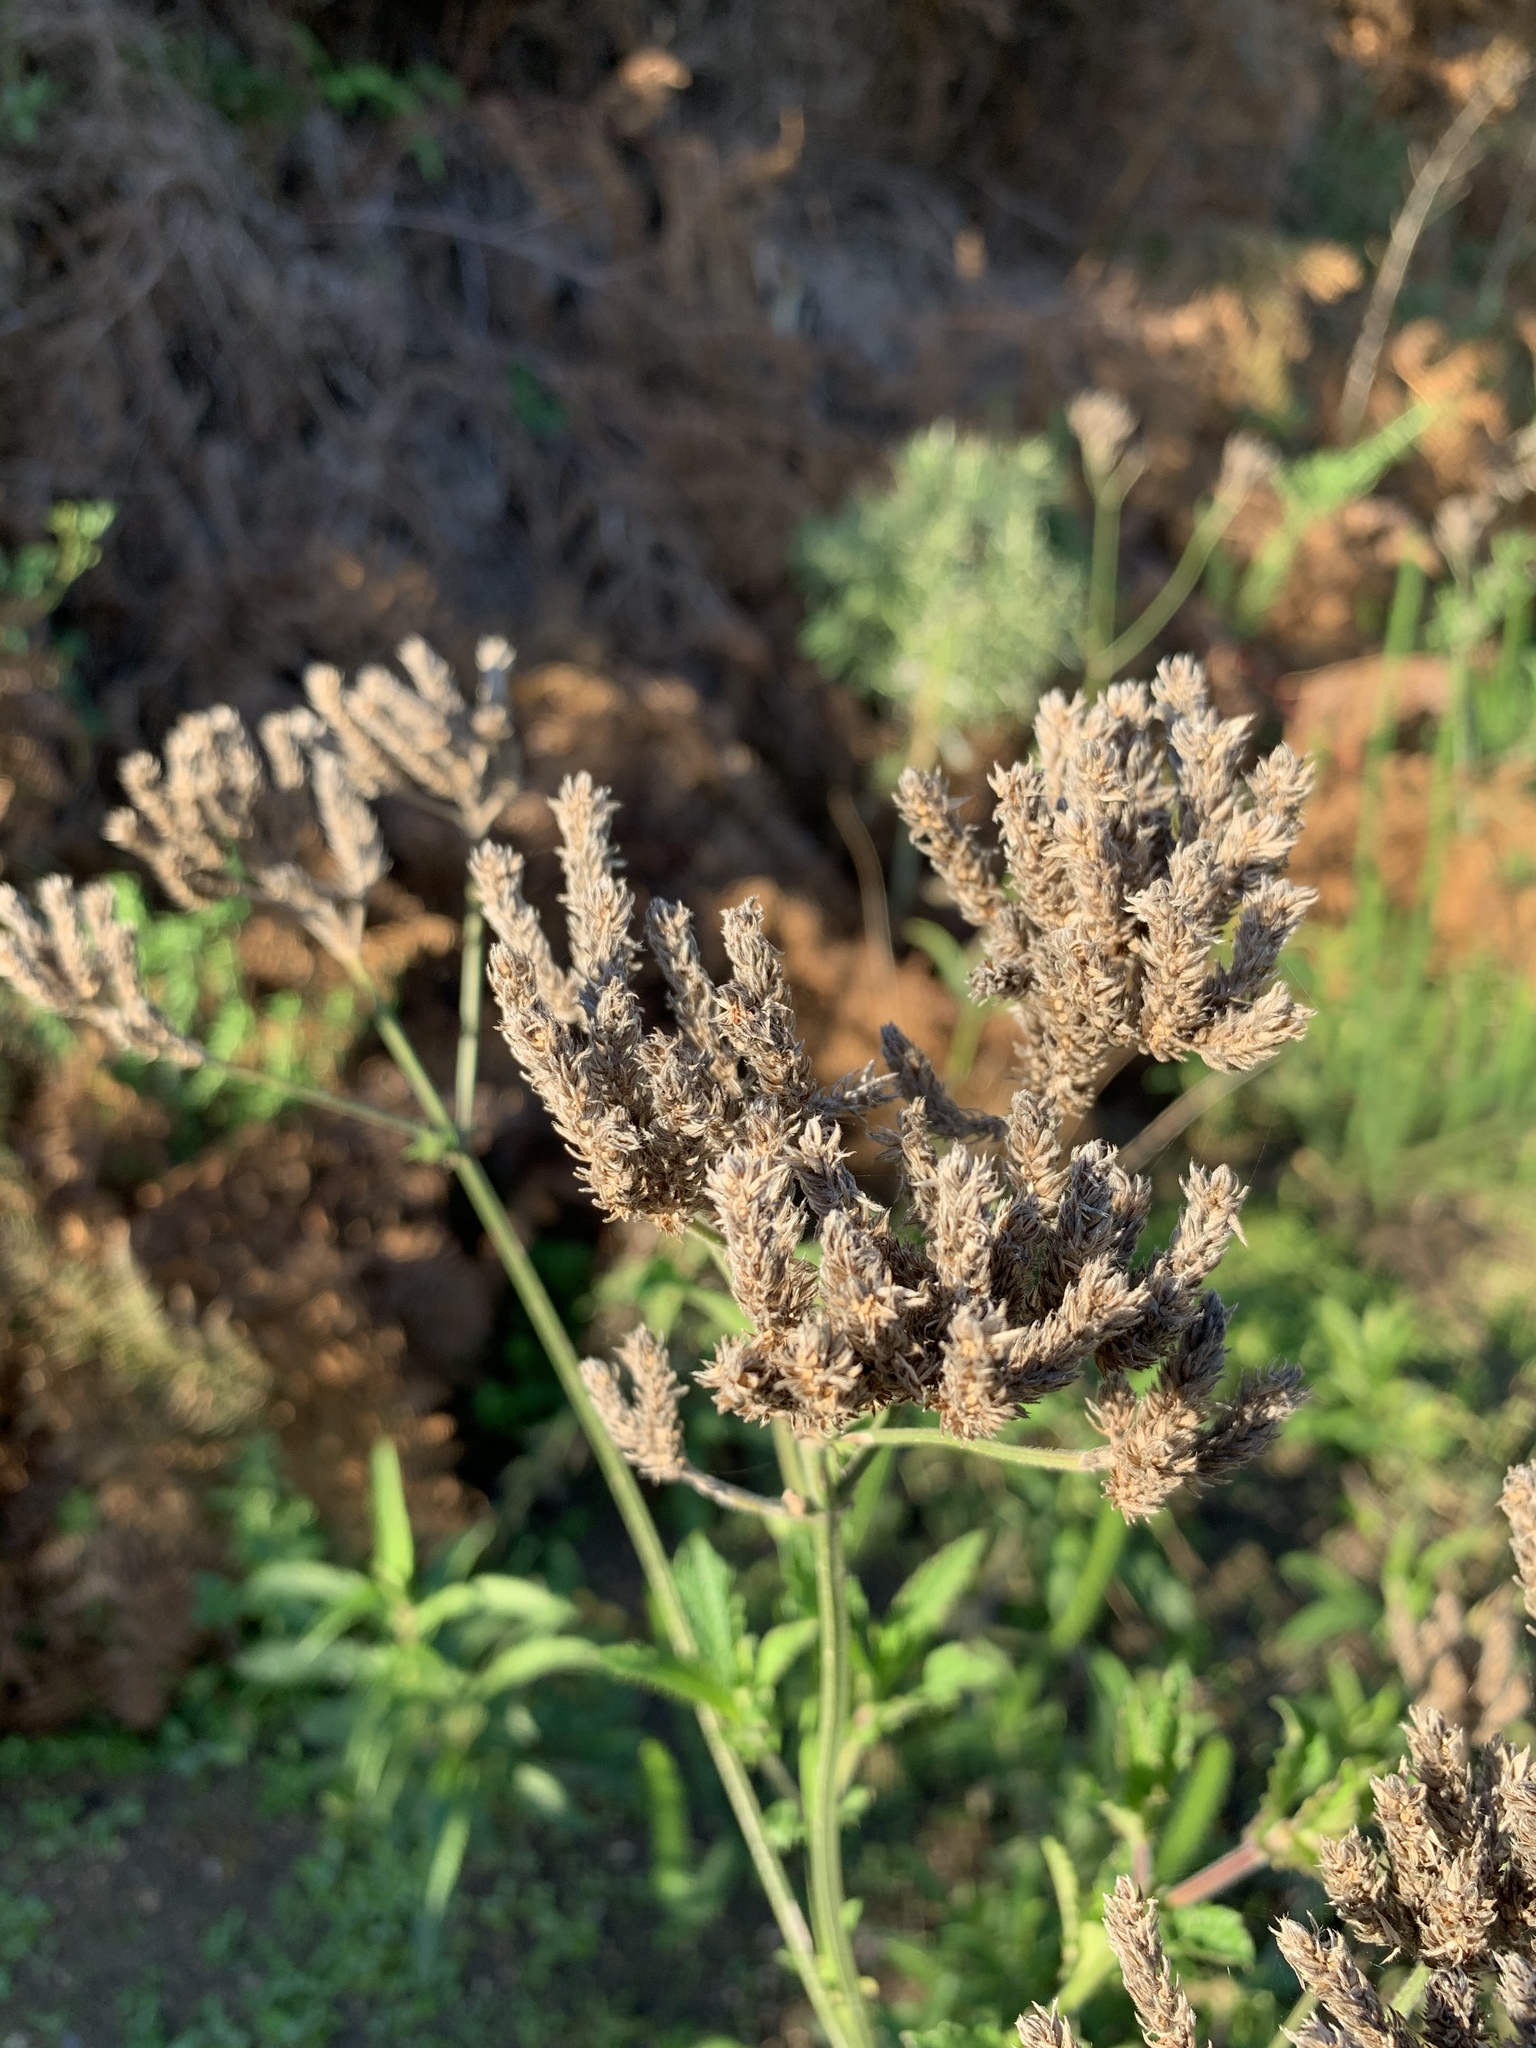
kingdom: Plantae
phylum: Tracheophyta
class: Magnoliopsida
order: Lamiales
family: Verbenaceae
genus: Verbena
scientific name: Verbena bonariensis
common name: Purpletop vervain
